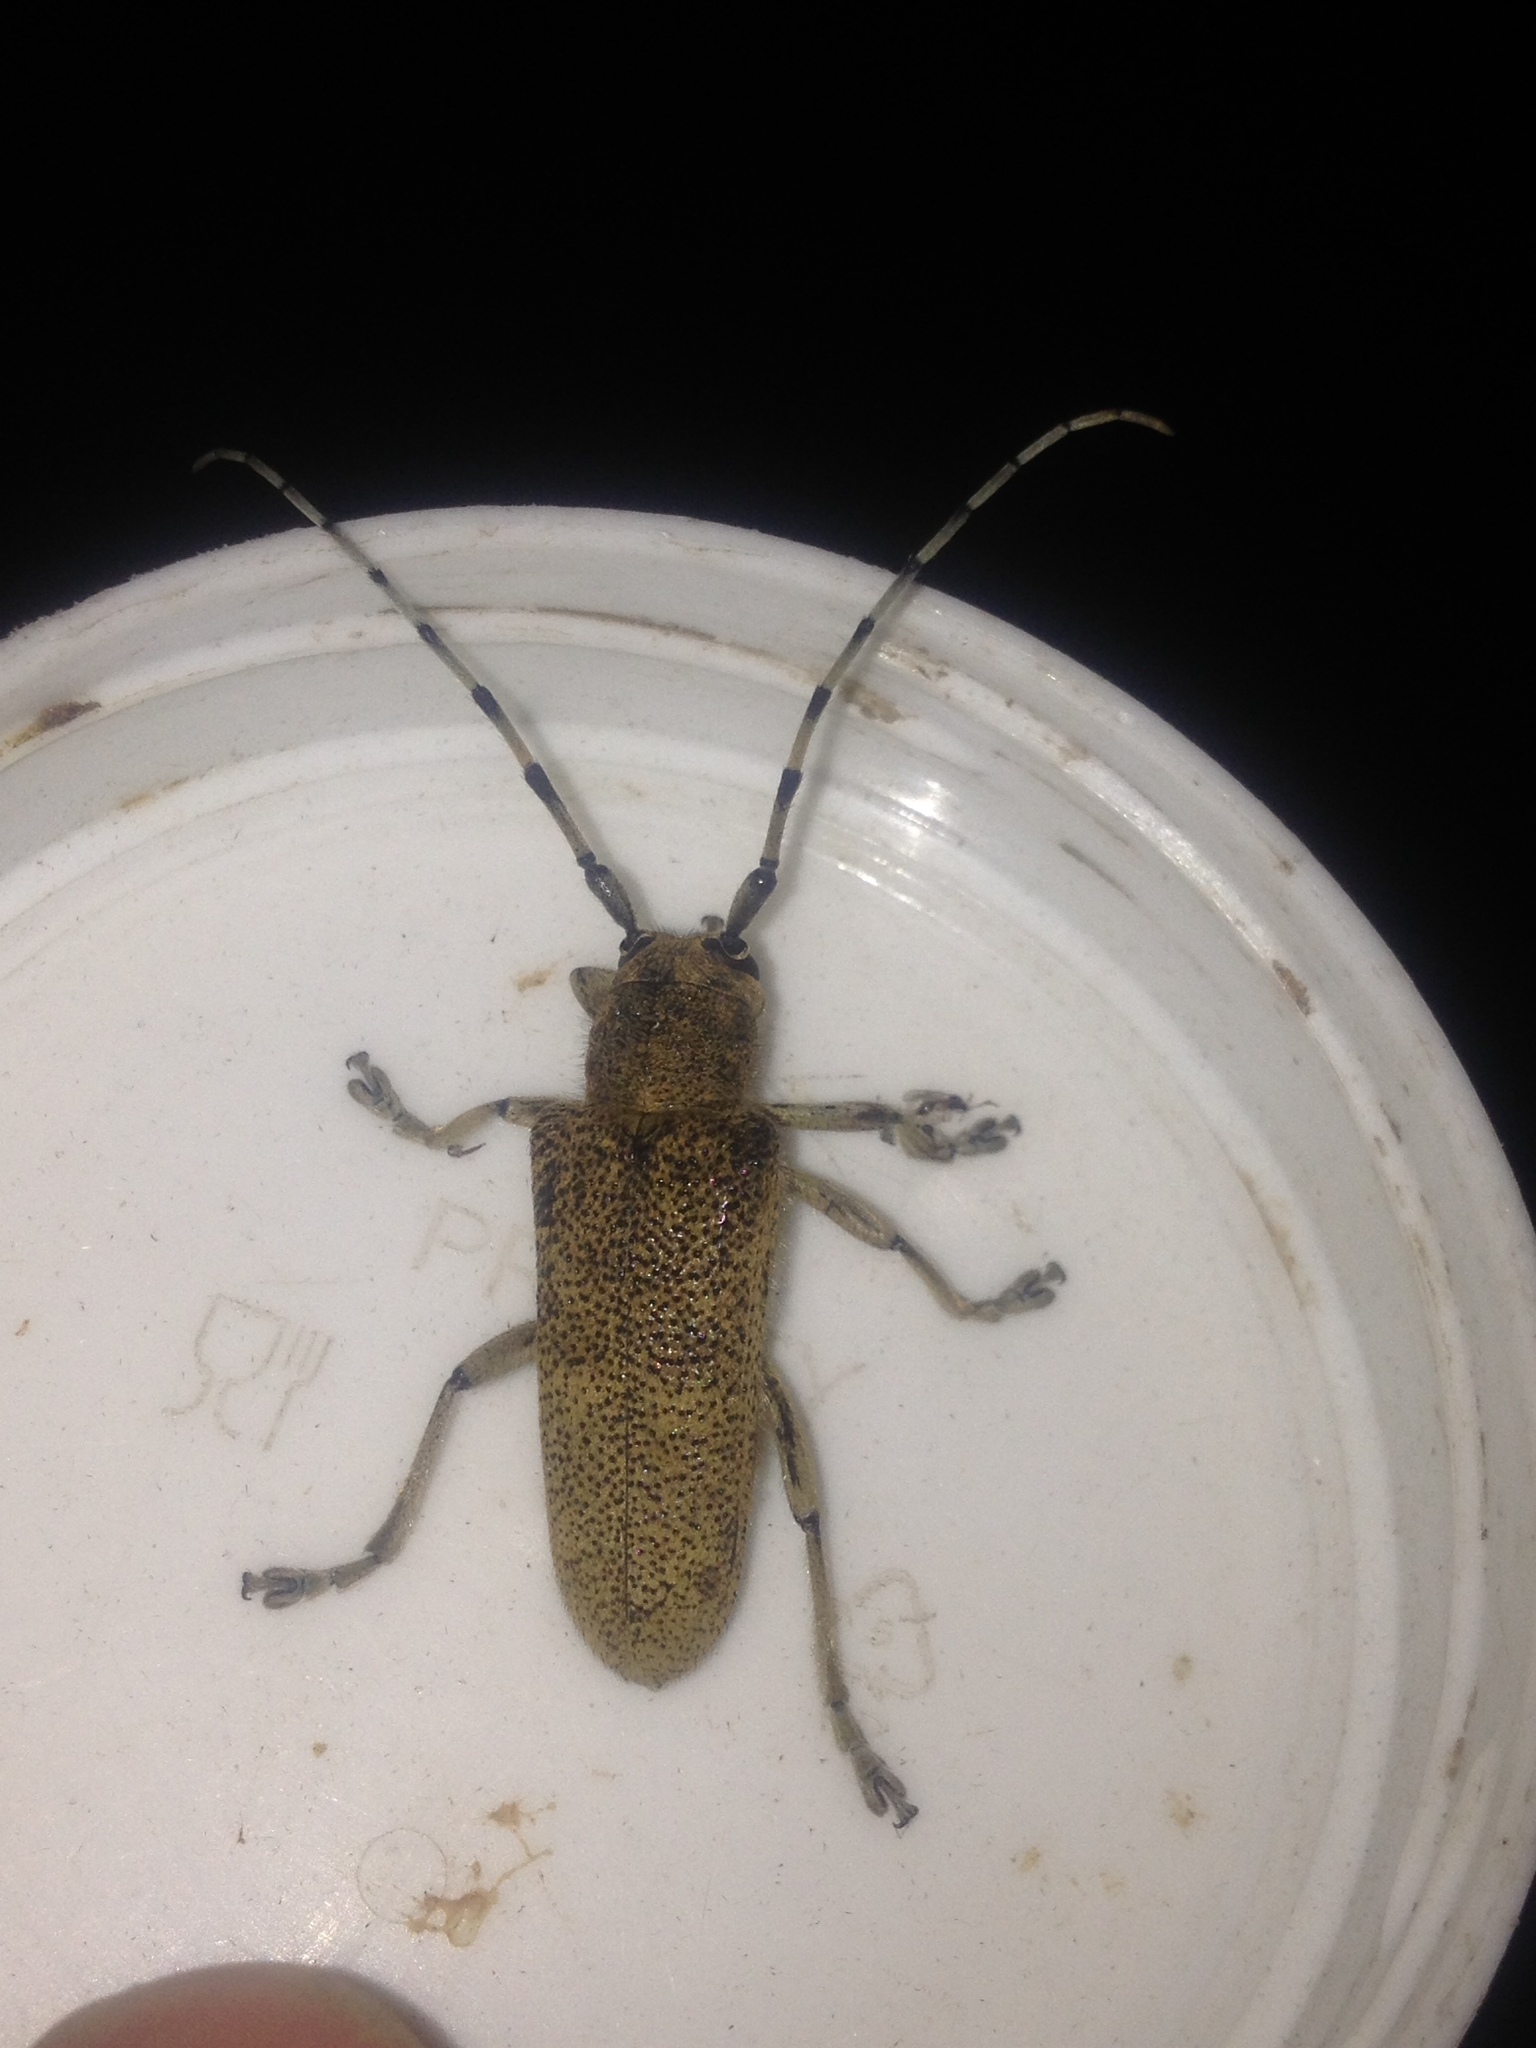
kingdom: Animalia
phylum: Arthropoda
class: Insecta
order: Coleoptera
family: Cerambycidae
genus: Saperda
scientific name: Saperda carcharias
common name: Poplar borer
